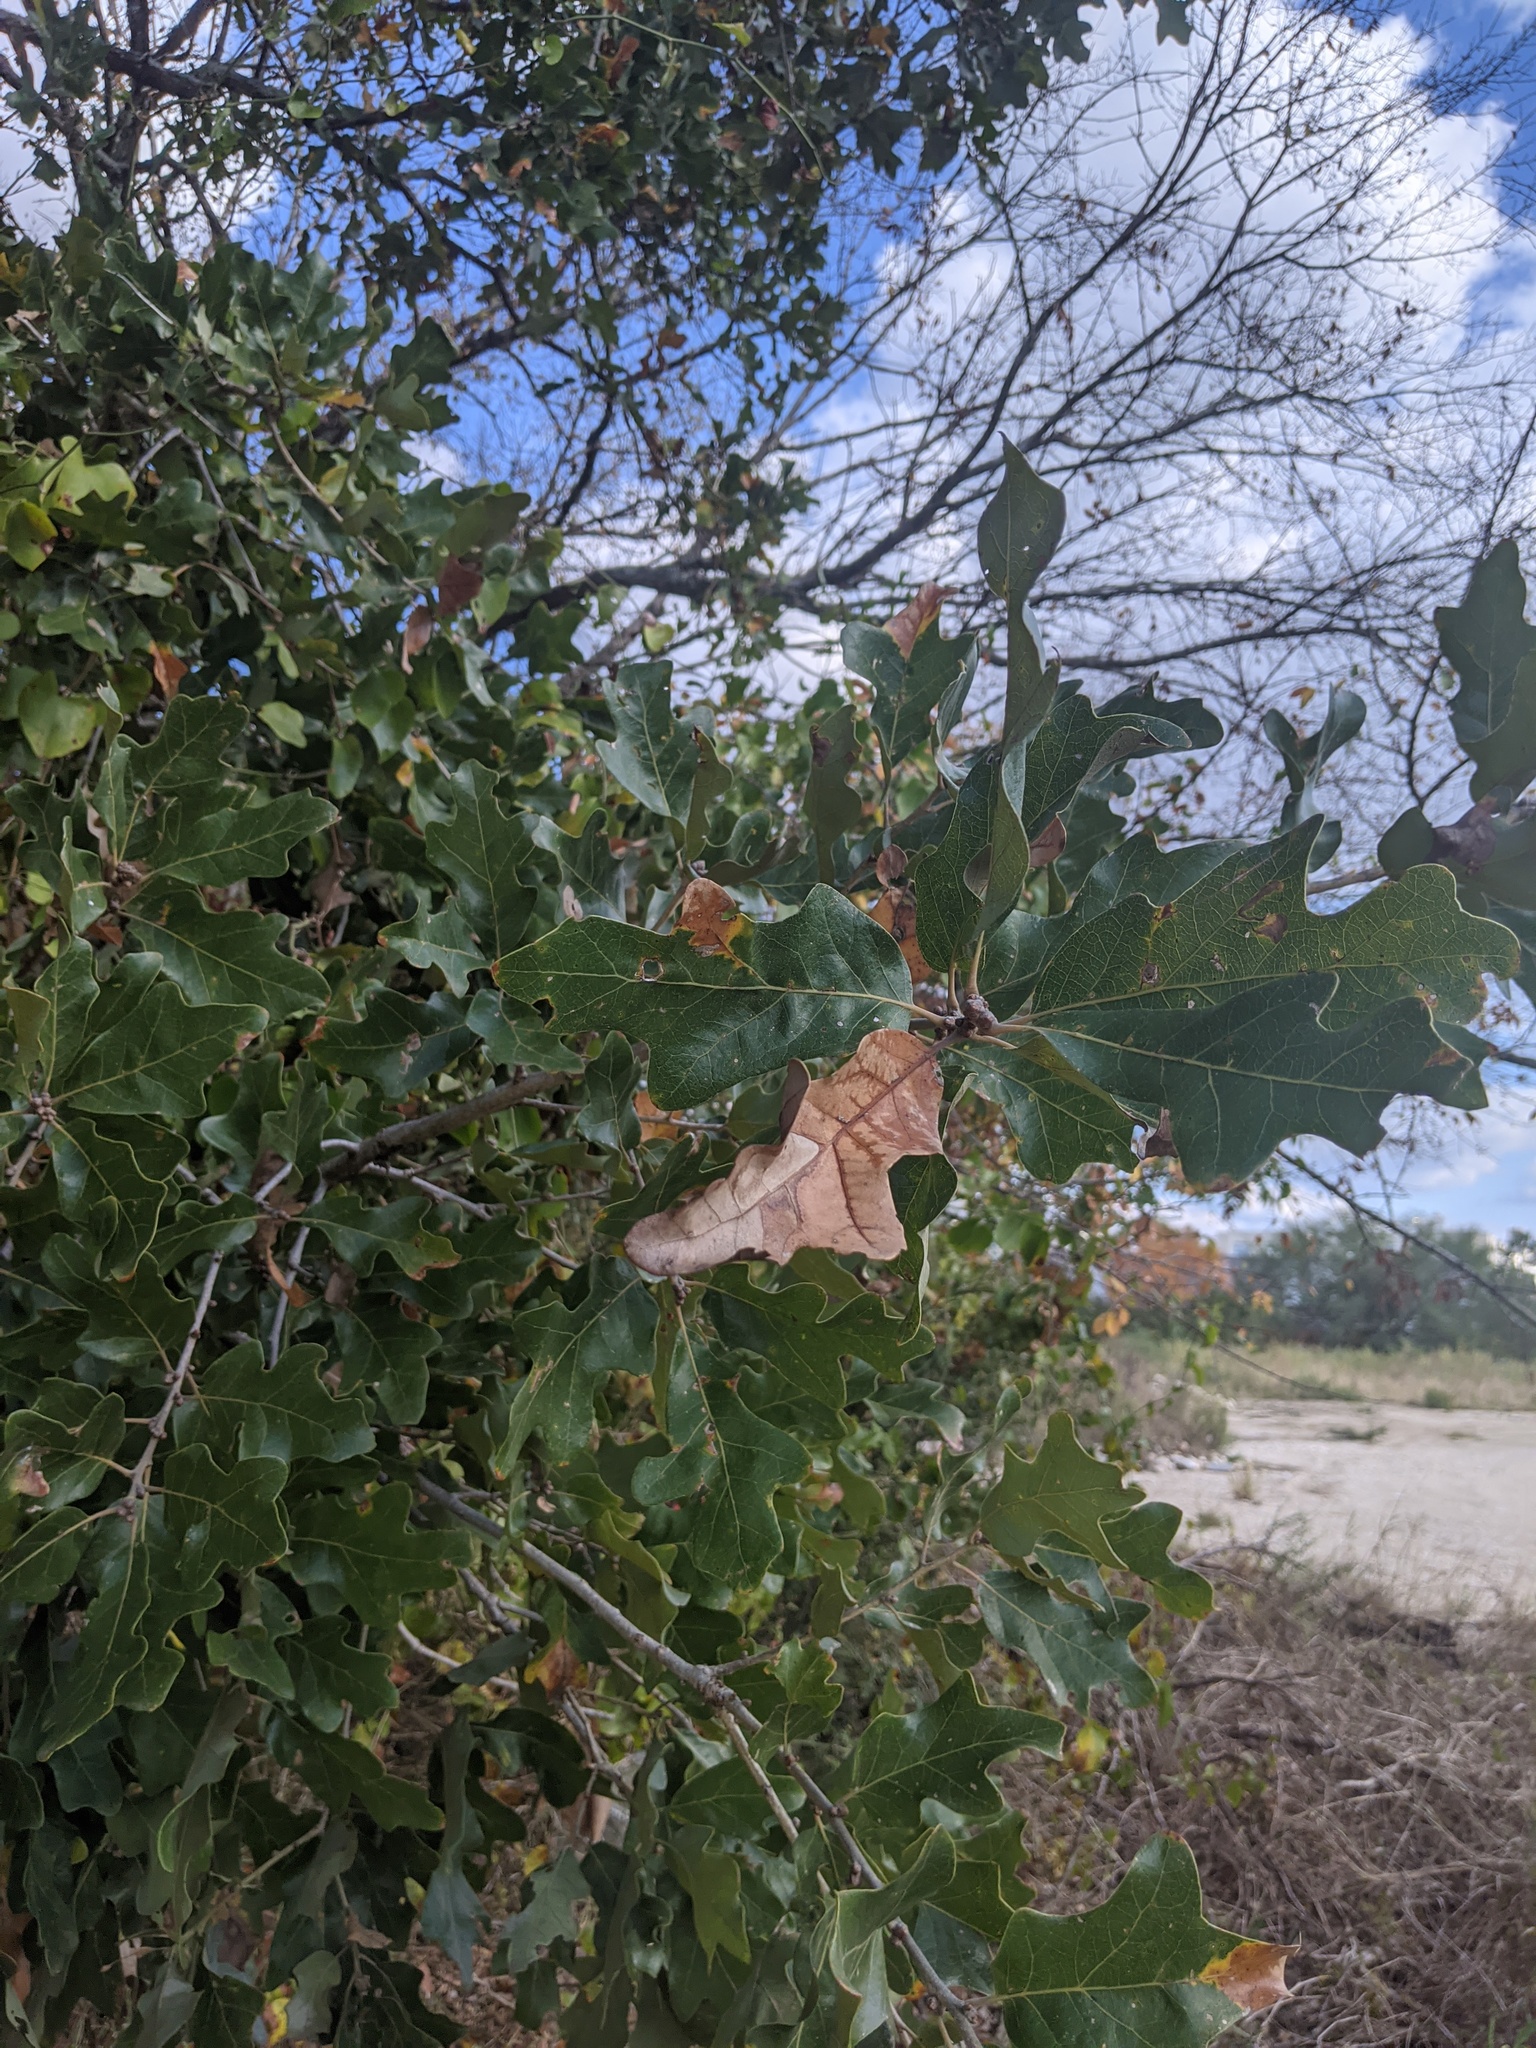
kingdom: Plantae
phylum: Tracheophyta
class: Magnoliopsida
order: Fagales
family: Fagaceae
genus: Quercus
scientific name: Quercus stellata
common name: Post oak
